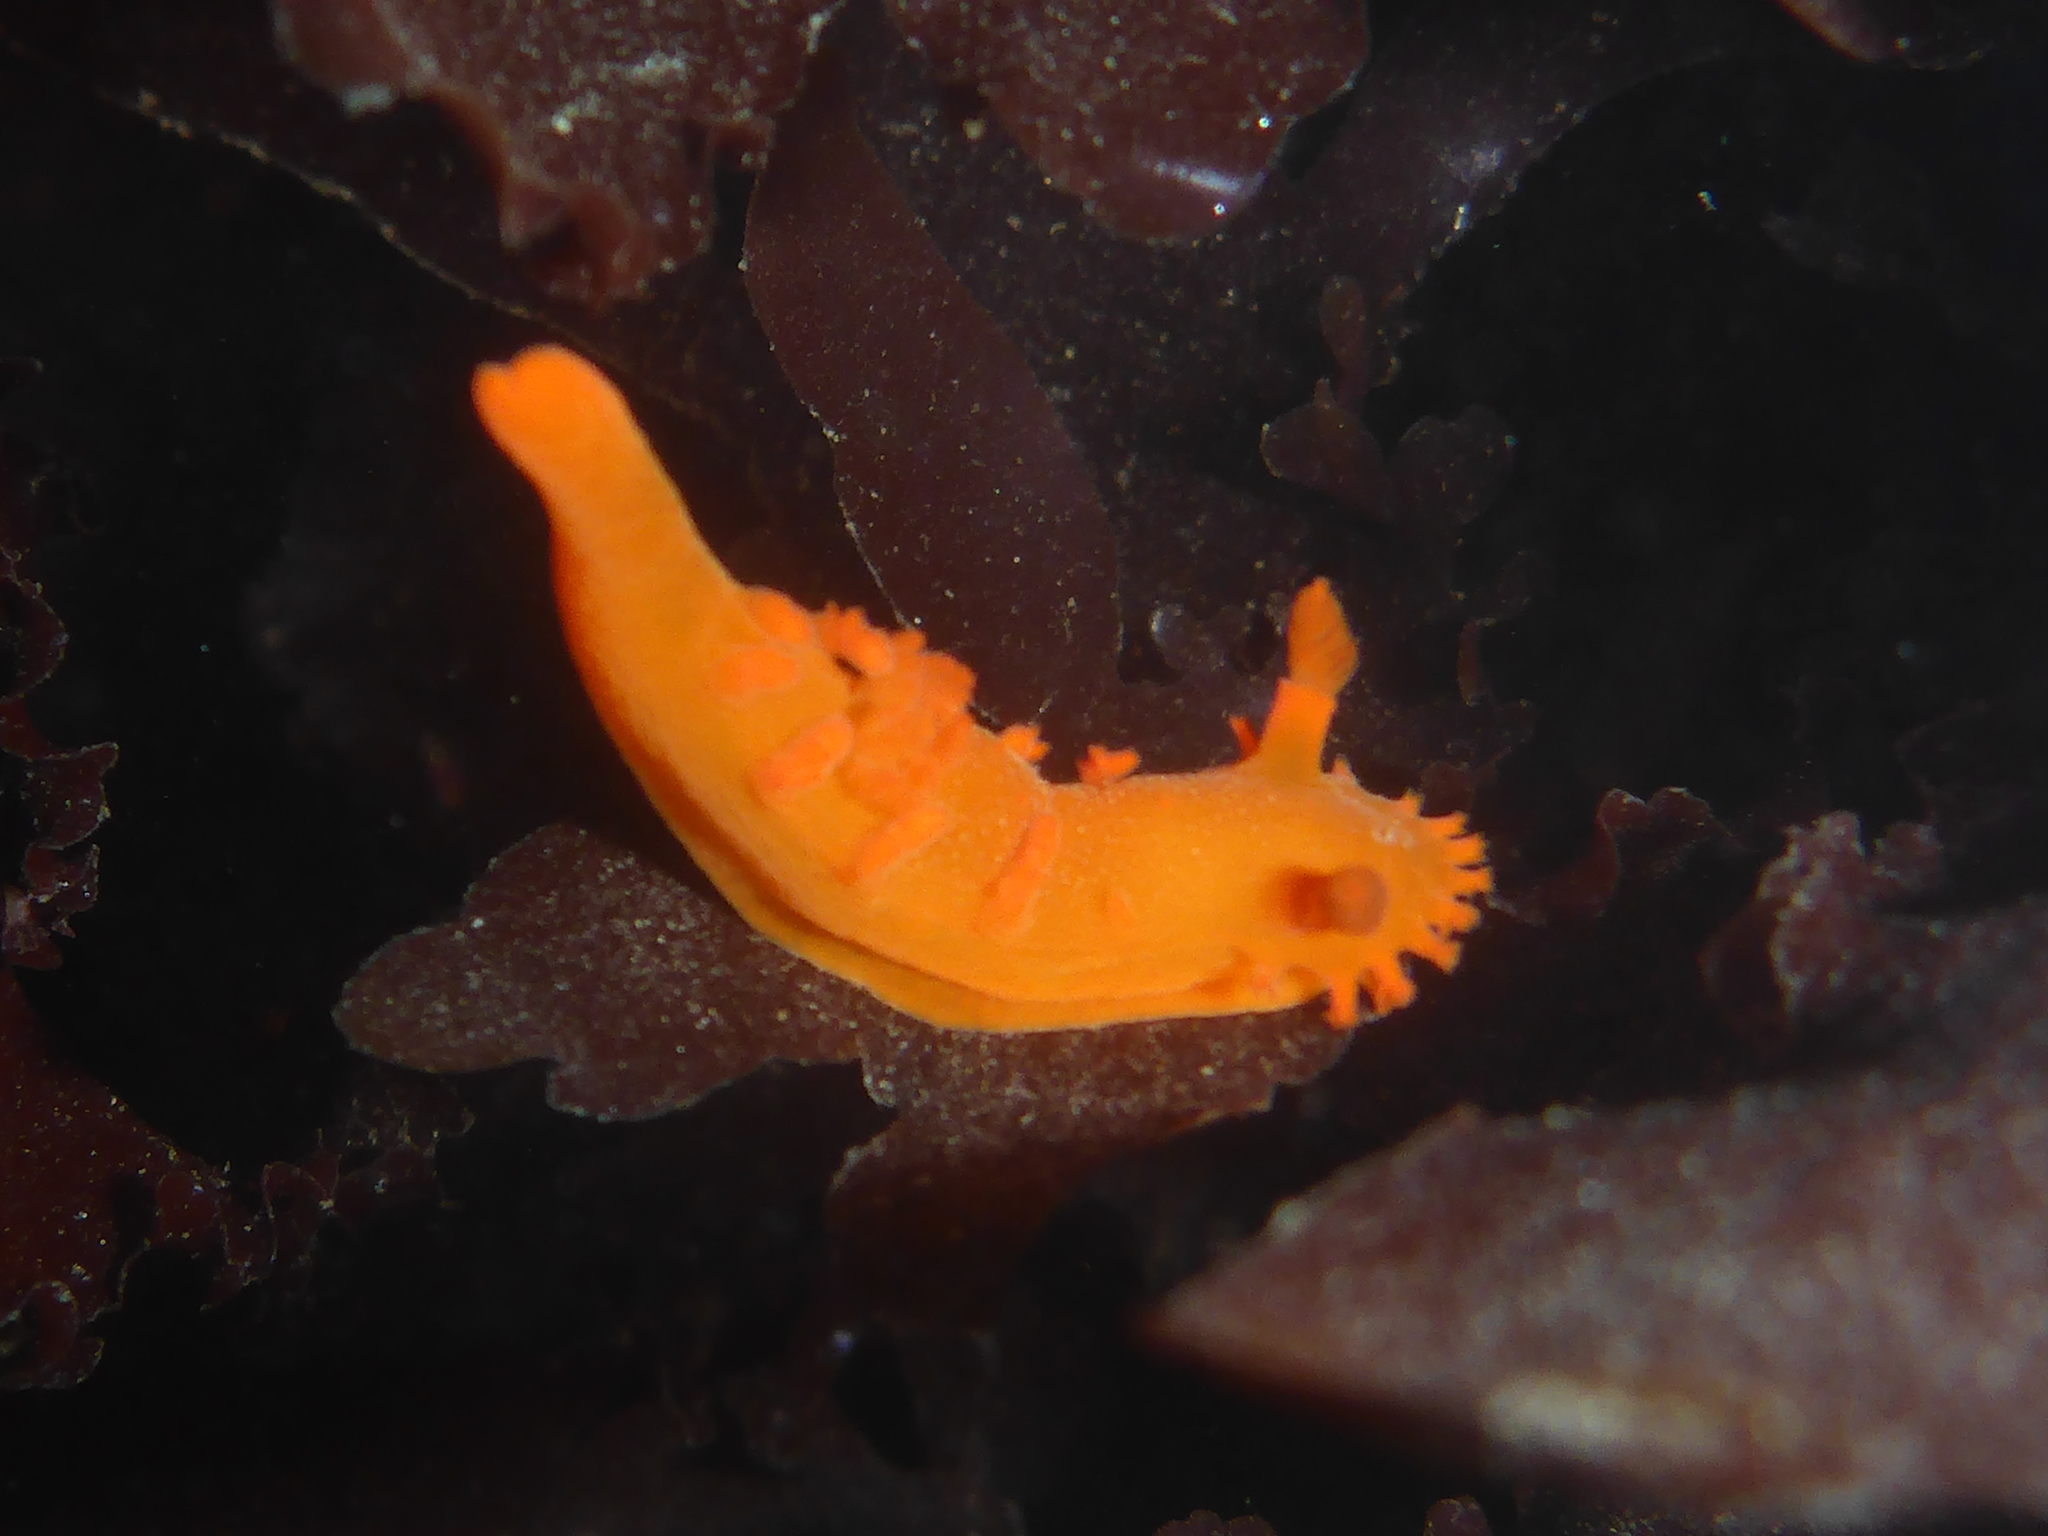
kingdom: Animalia
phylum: Mollusca
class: Gastropoda
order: Nudibranchia
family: Polyceridae
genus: Triopha
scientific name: Triopha maculata
